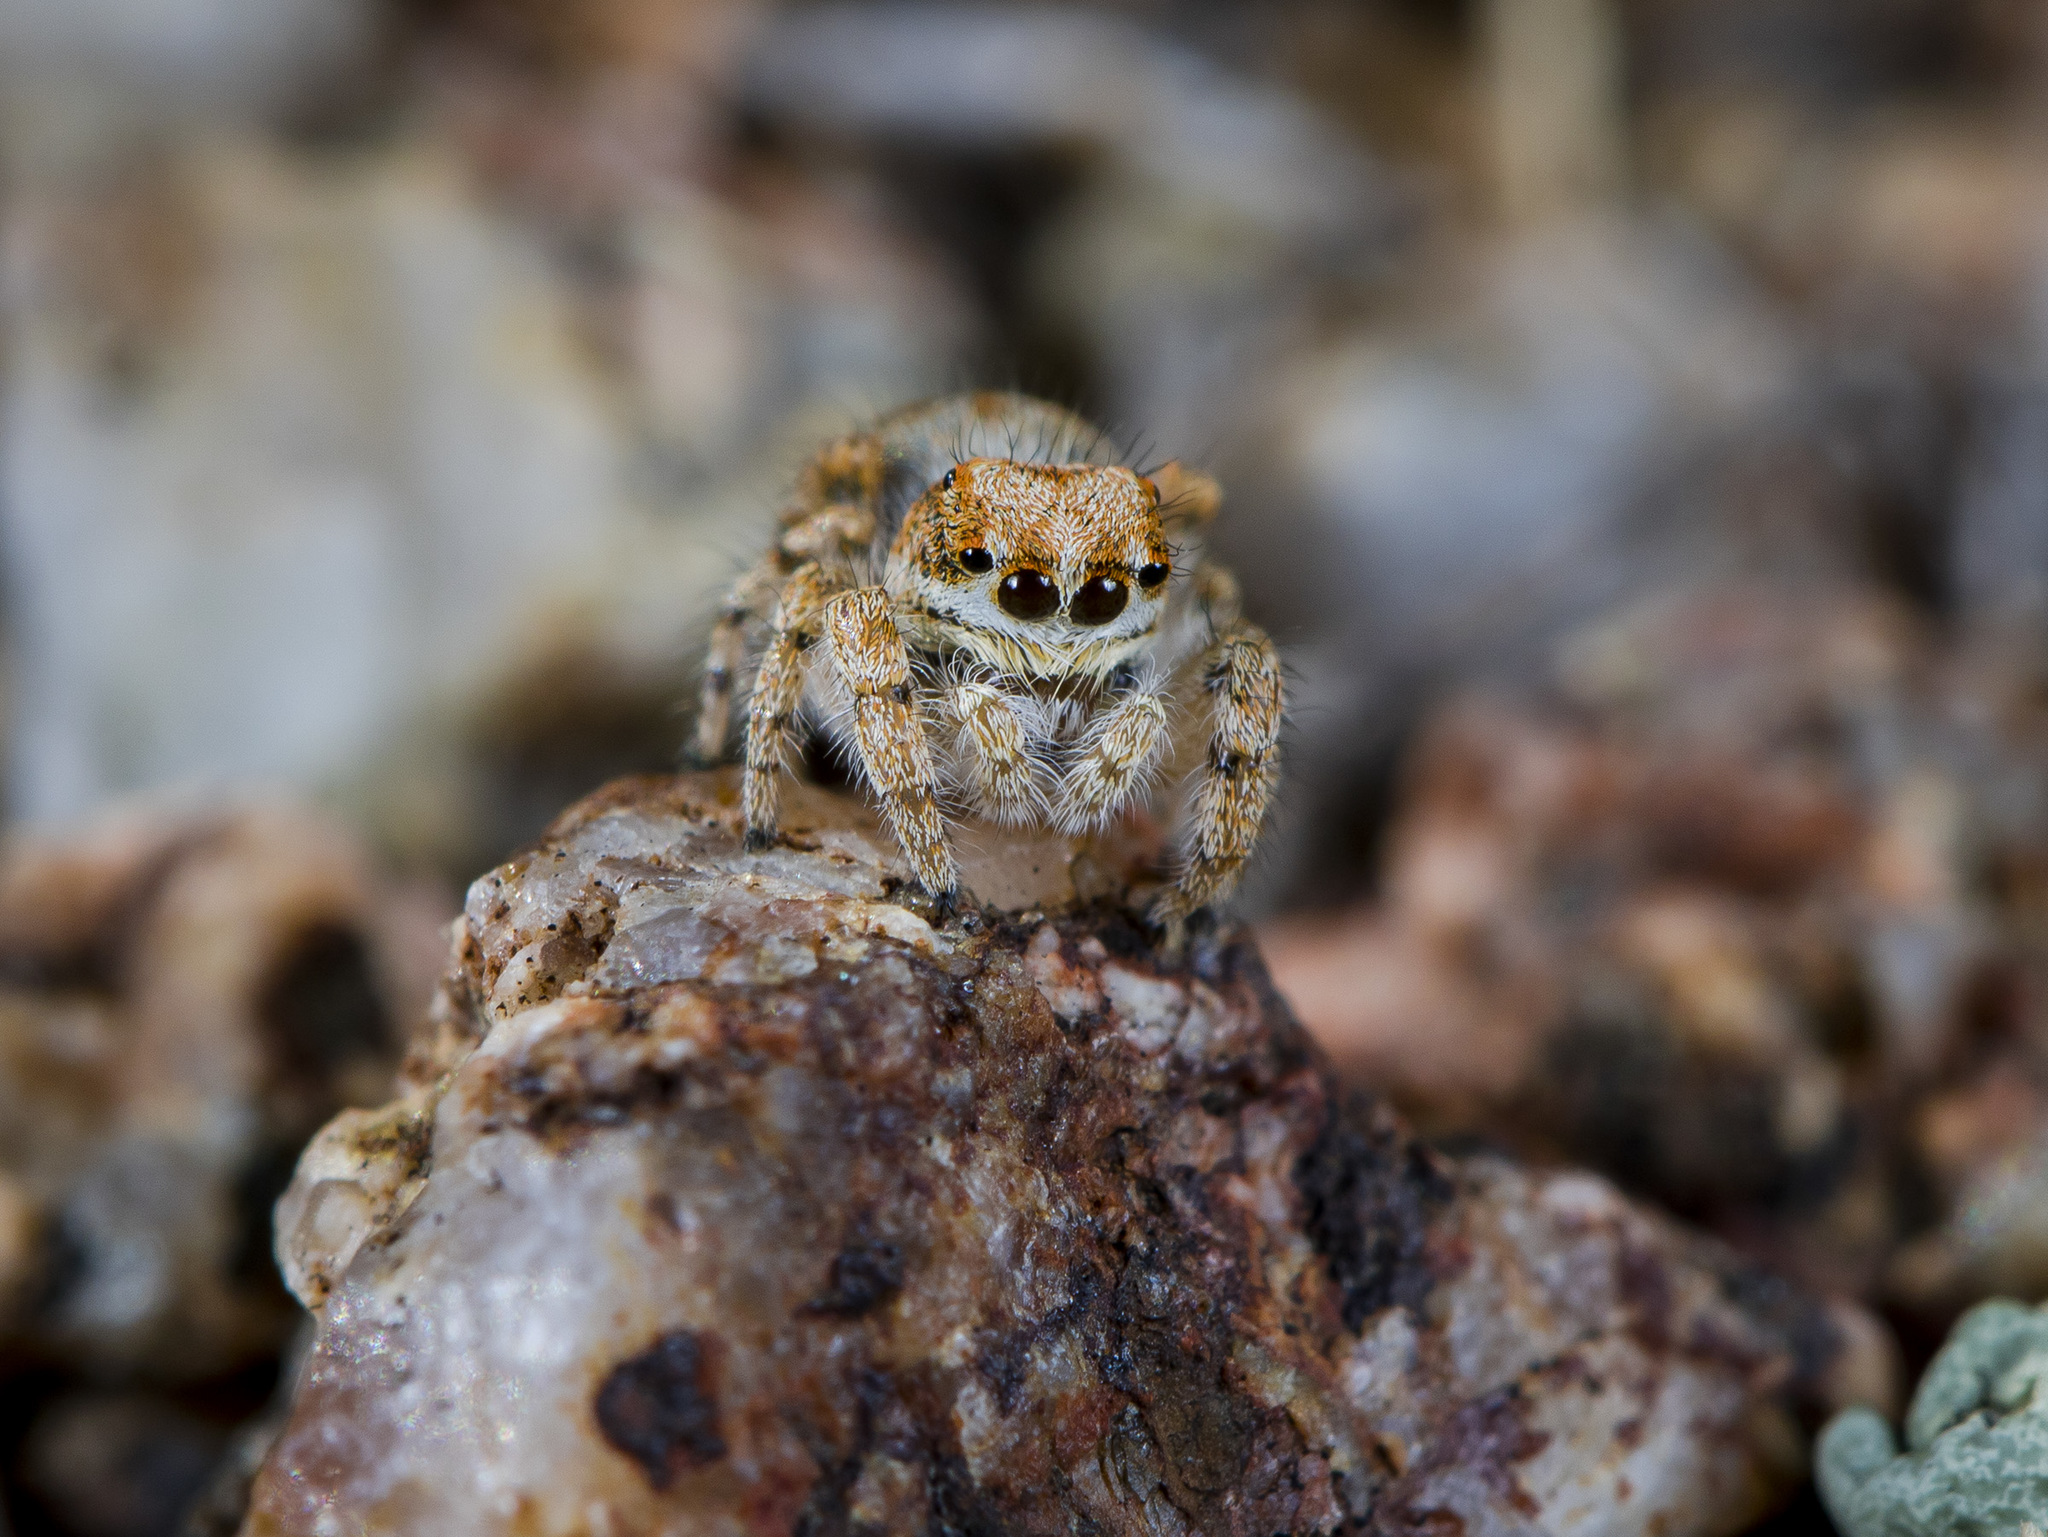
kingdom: Animalia
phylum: Arthropoda
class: Arachnida
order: Araneae
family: Salticidae
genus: Yllenus
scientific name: Yllenus charynensis
